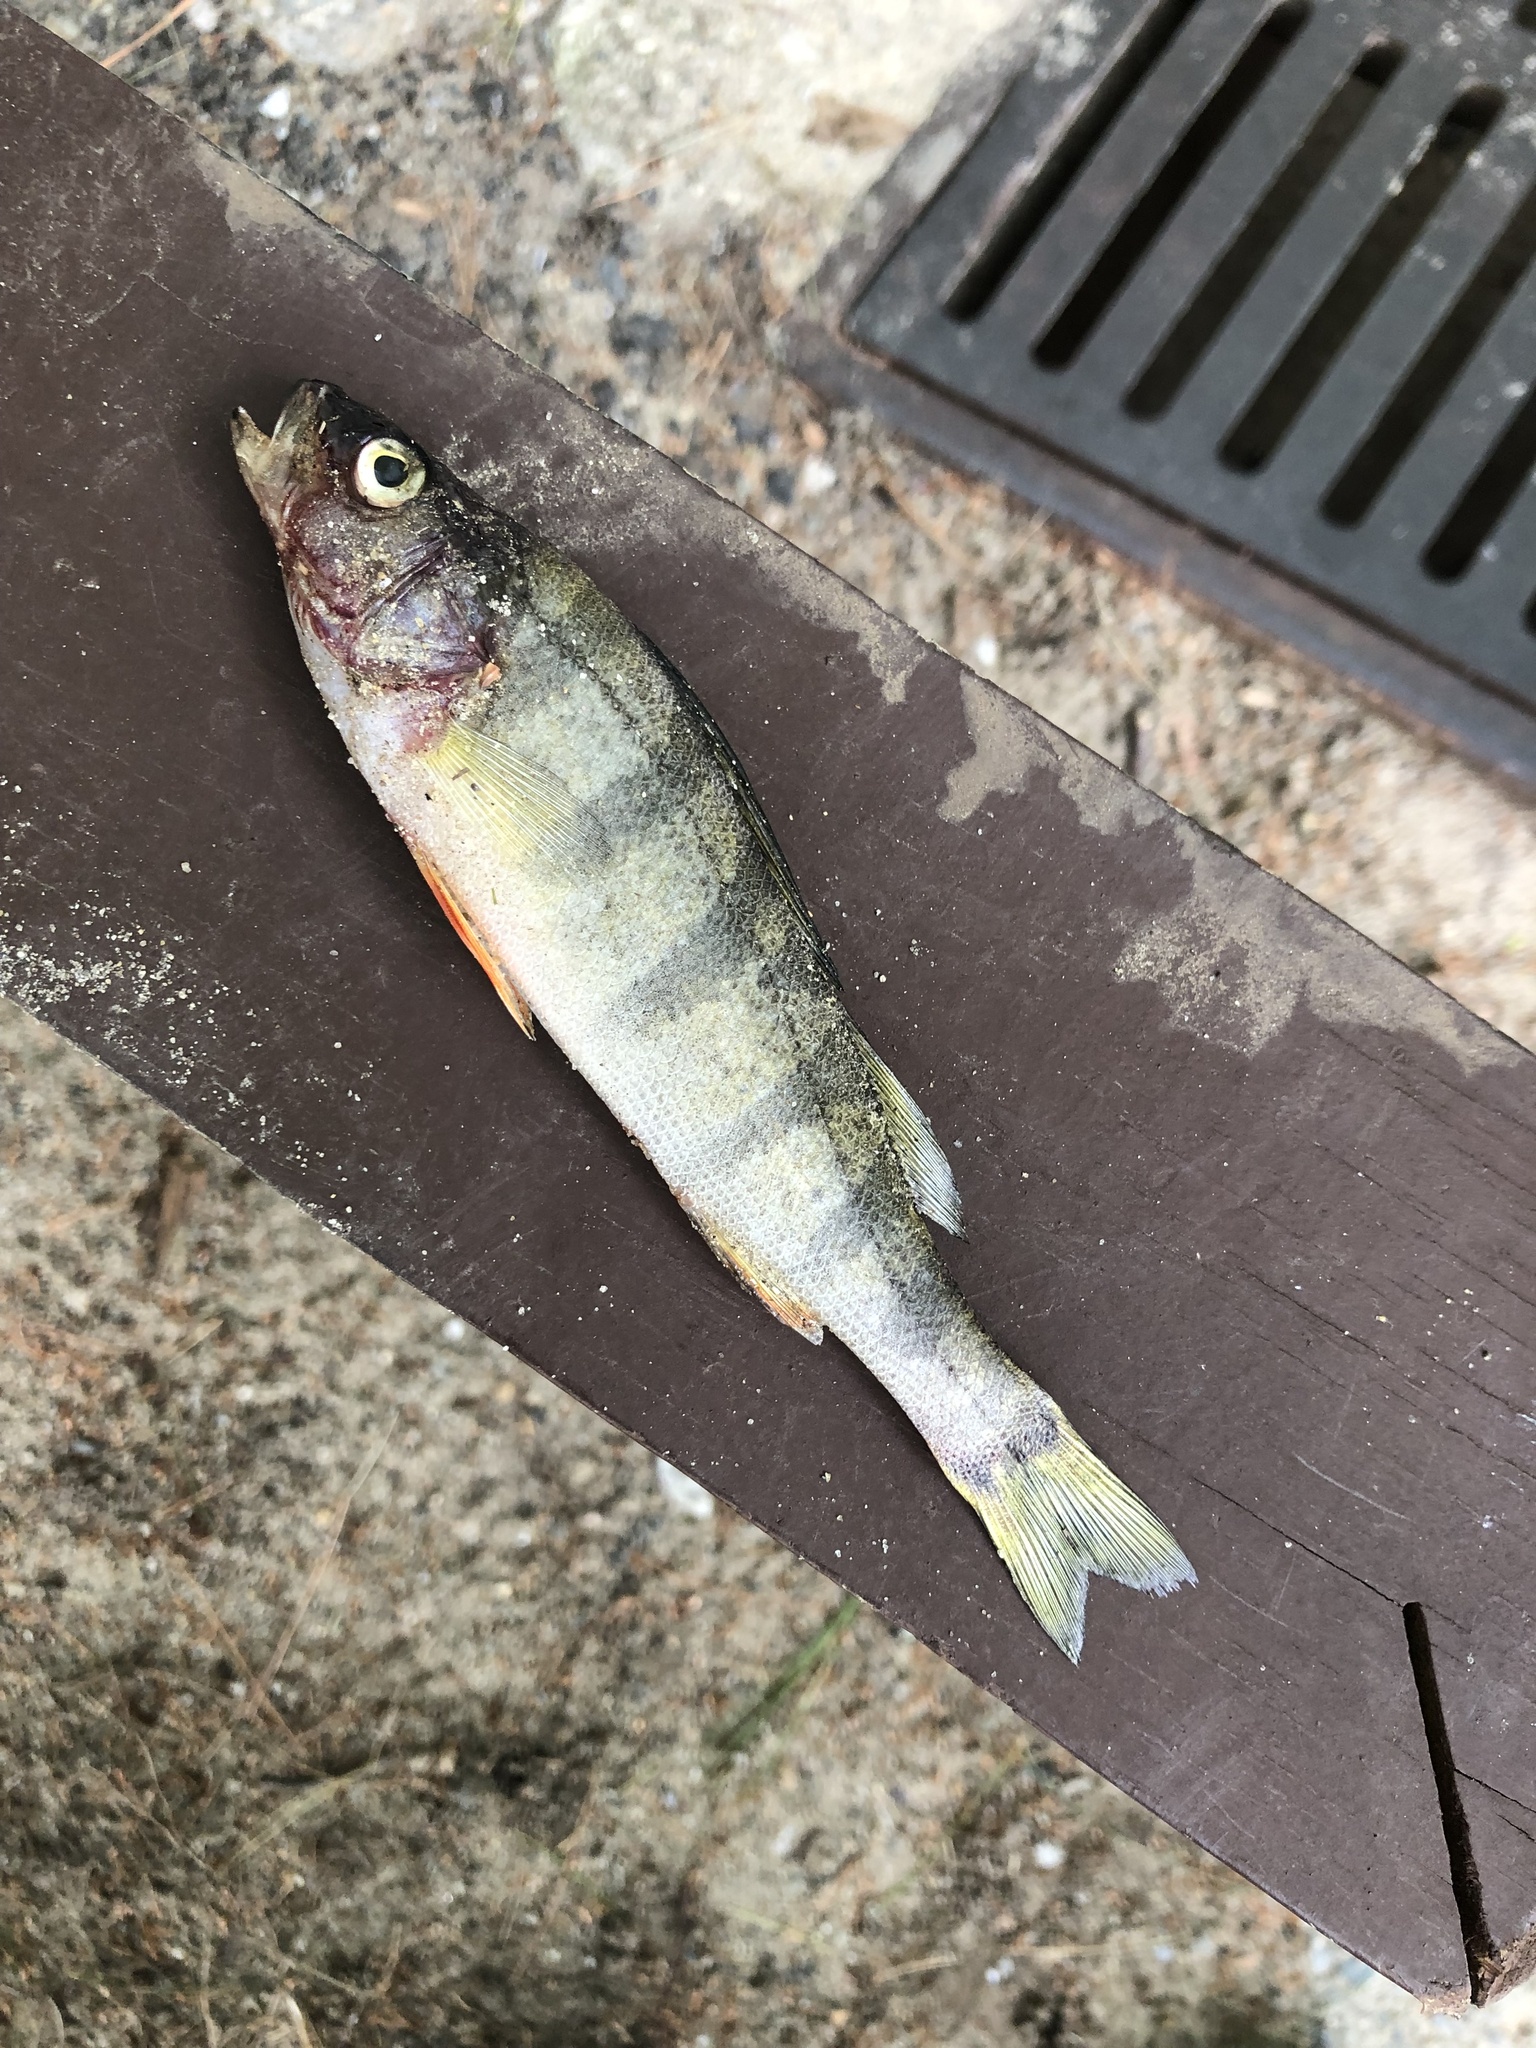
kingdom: Animalia
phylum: Chordata
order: Perciformes
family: Percidae
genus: Perca
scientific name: Perca flavescens
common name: Yellow perch
